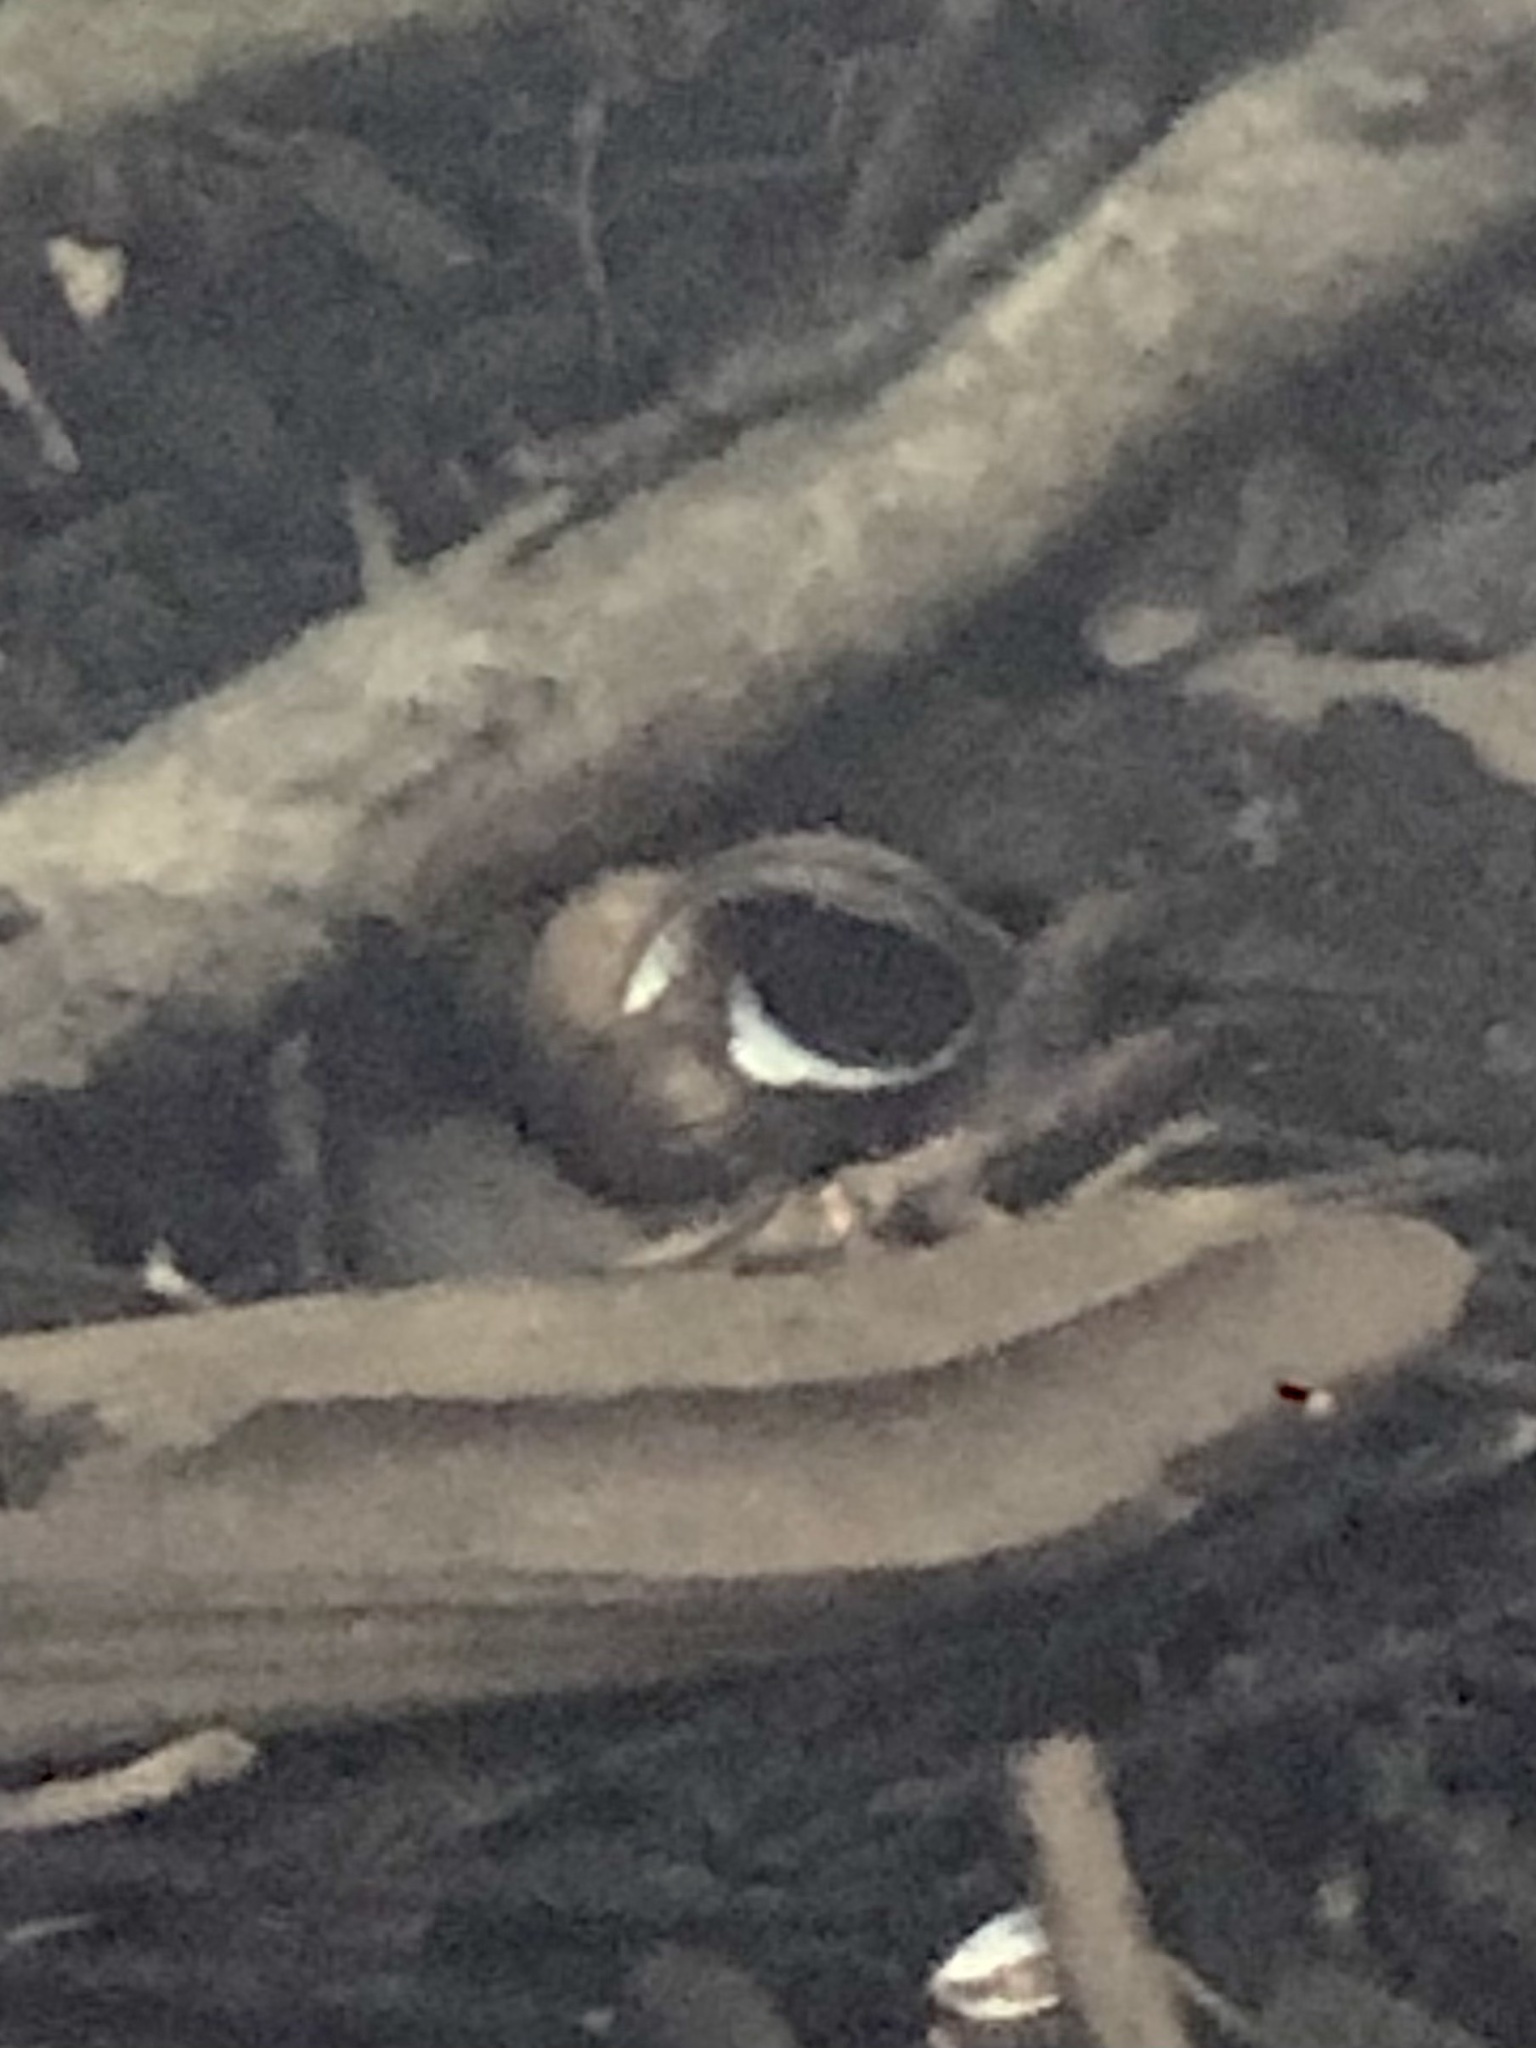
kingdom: Animalia
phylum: Mollusca
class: Gastropoda
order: Architaenioglossa
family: Viviparidae
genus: Cipangopaludina
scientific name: Cipangopaludina chinensis
